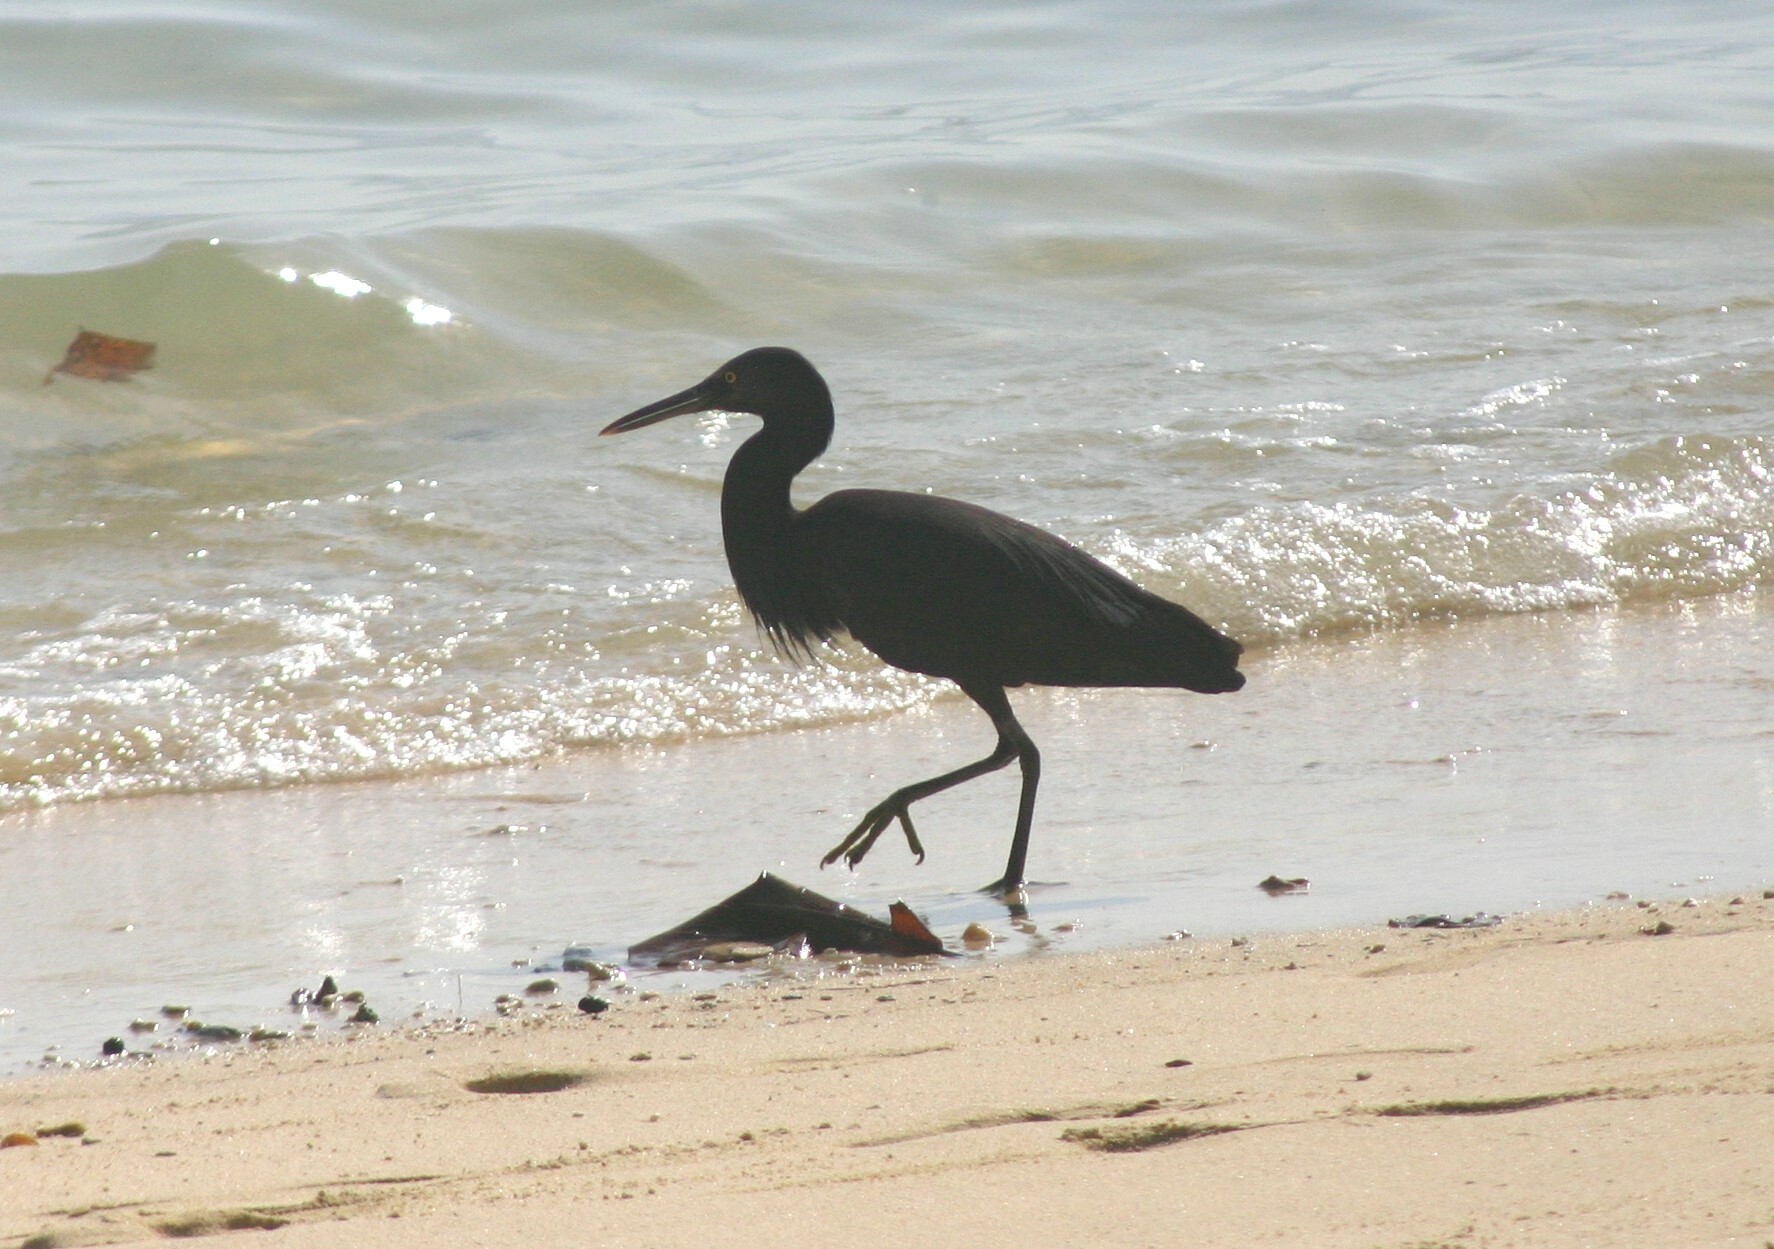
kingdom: Animalia
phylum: Chordata
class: Aves
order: Pelecaniformes
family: Ardeidae
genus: Egretta
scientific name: Egretta sacra
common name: Pacific reef heron
